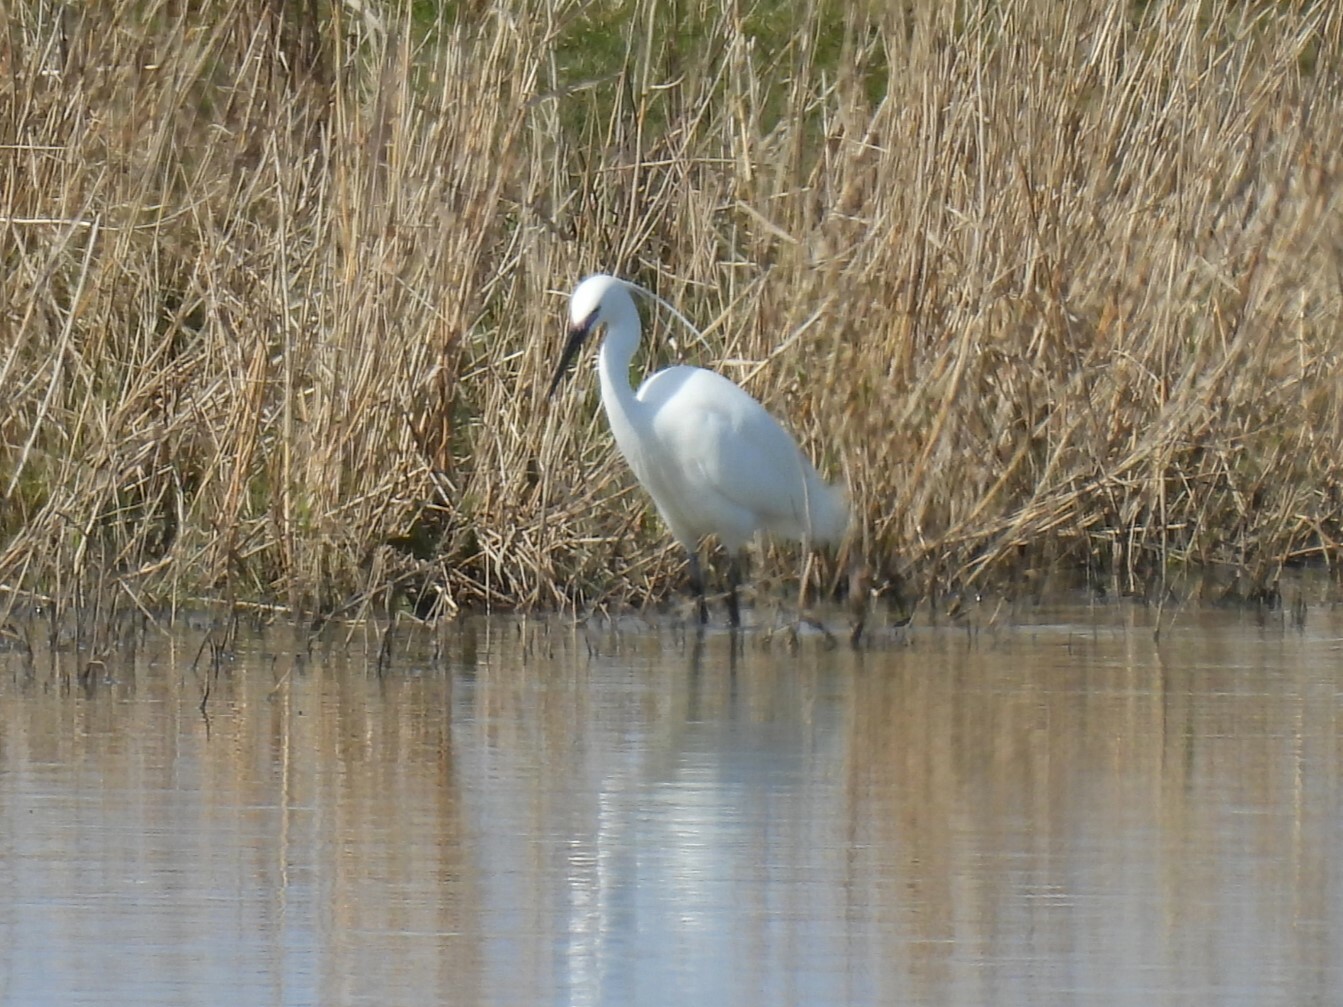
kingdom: Animalia
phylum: Chordata
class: Aves
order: Pelecaniformes
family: Ardeidae
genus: Egretta
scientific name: Egretta garzetta
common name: Little egret
